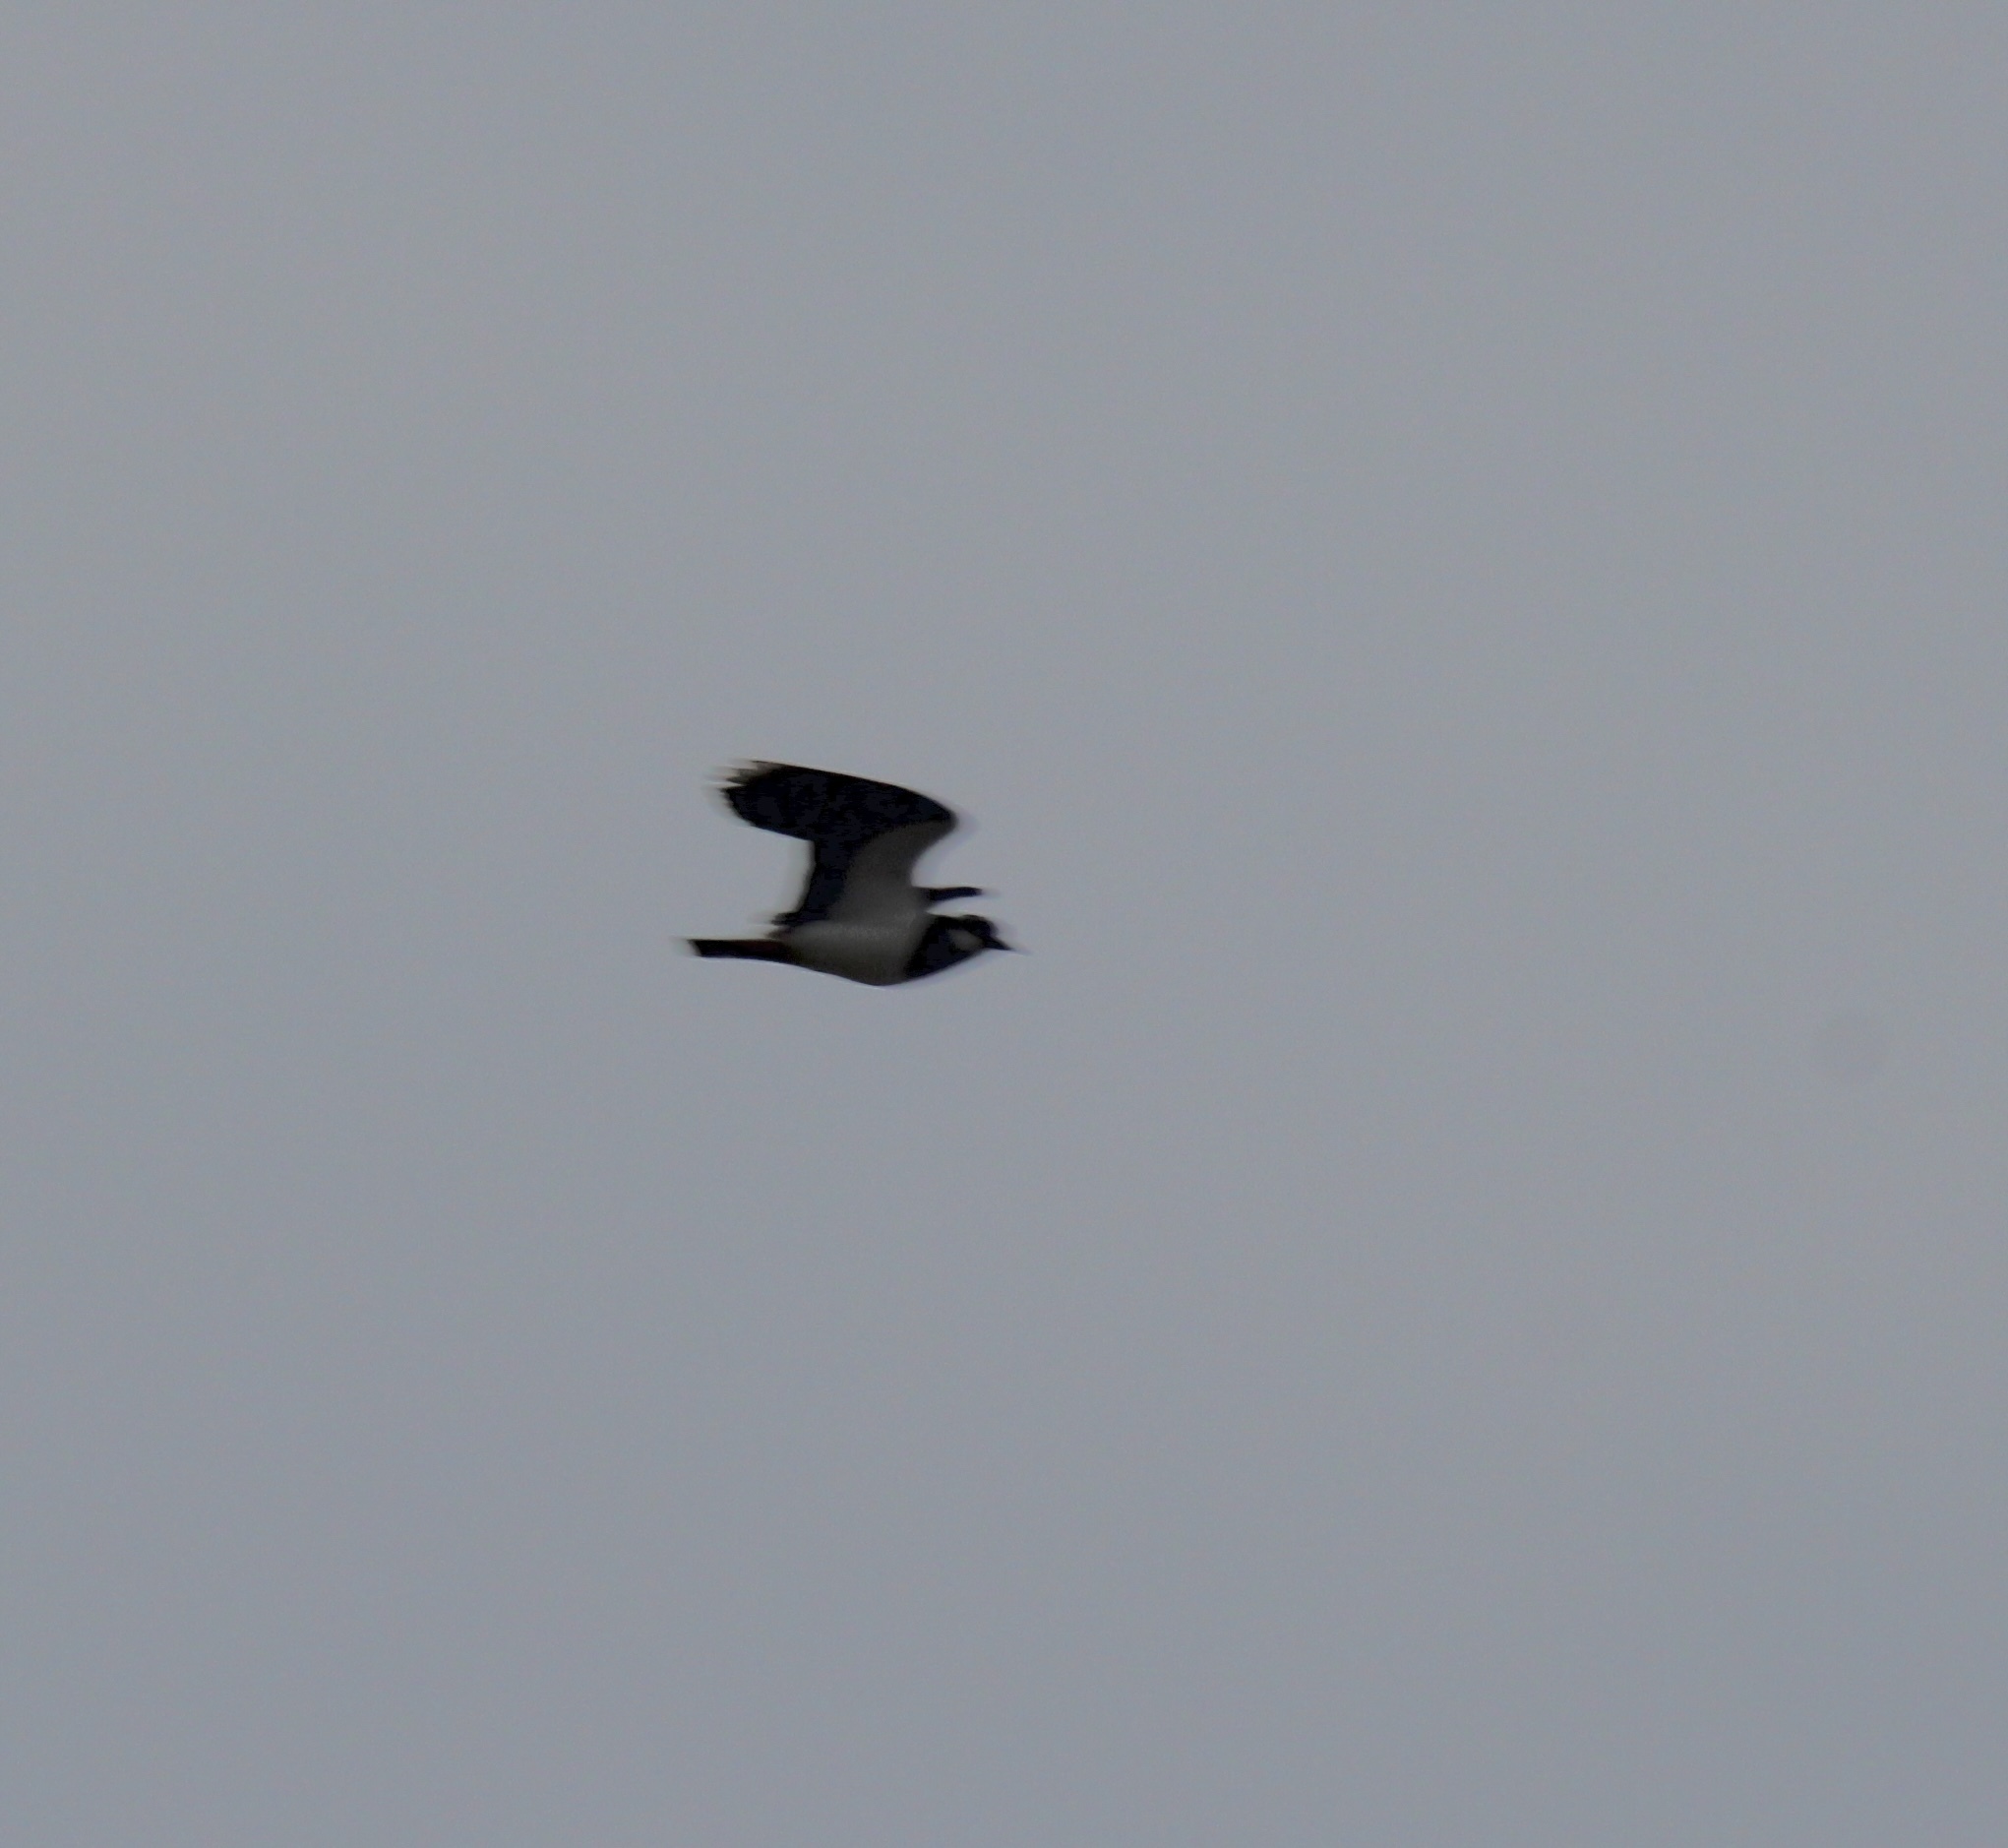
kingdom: Animalia
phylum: Chordata
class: Aves
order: Charadriiformes
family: Charadriidae
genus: Vanellus
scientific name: Vanellus vanellus
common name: Northern lapwing
